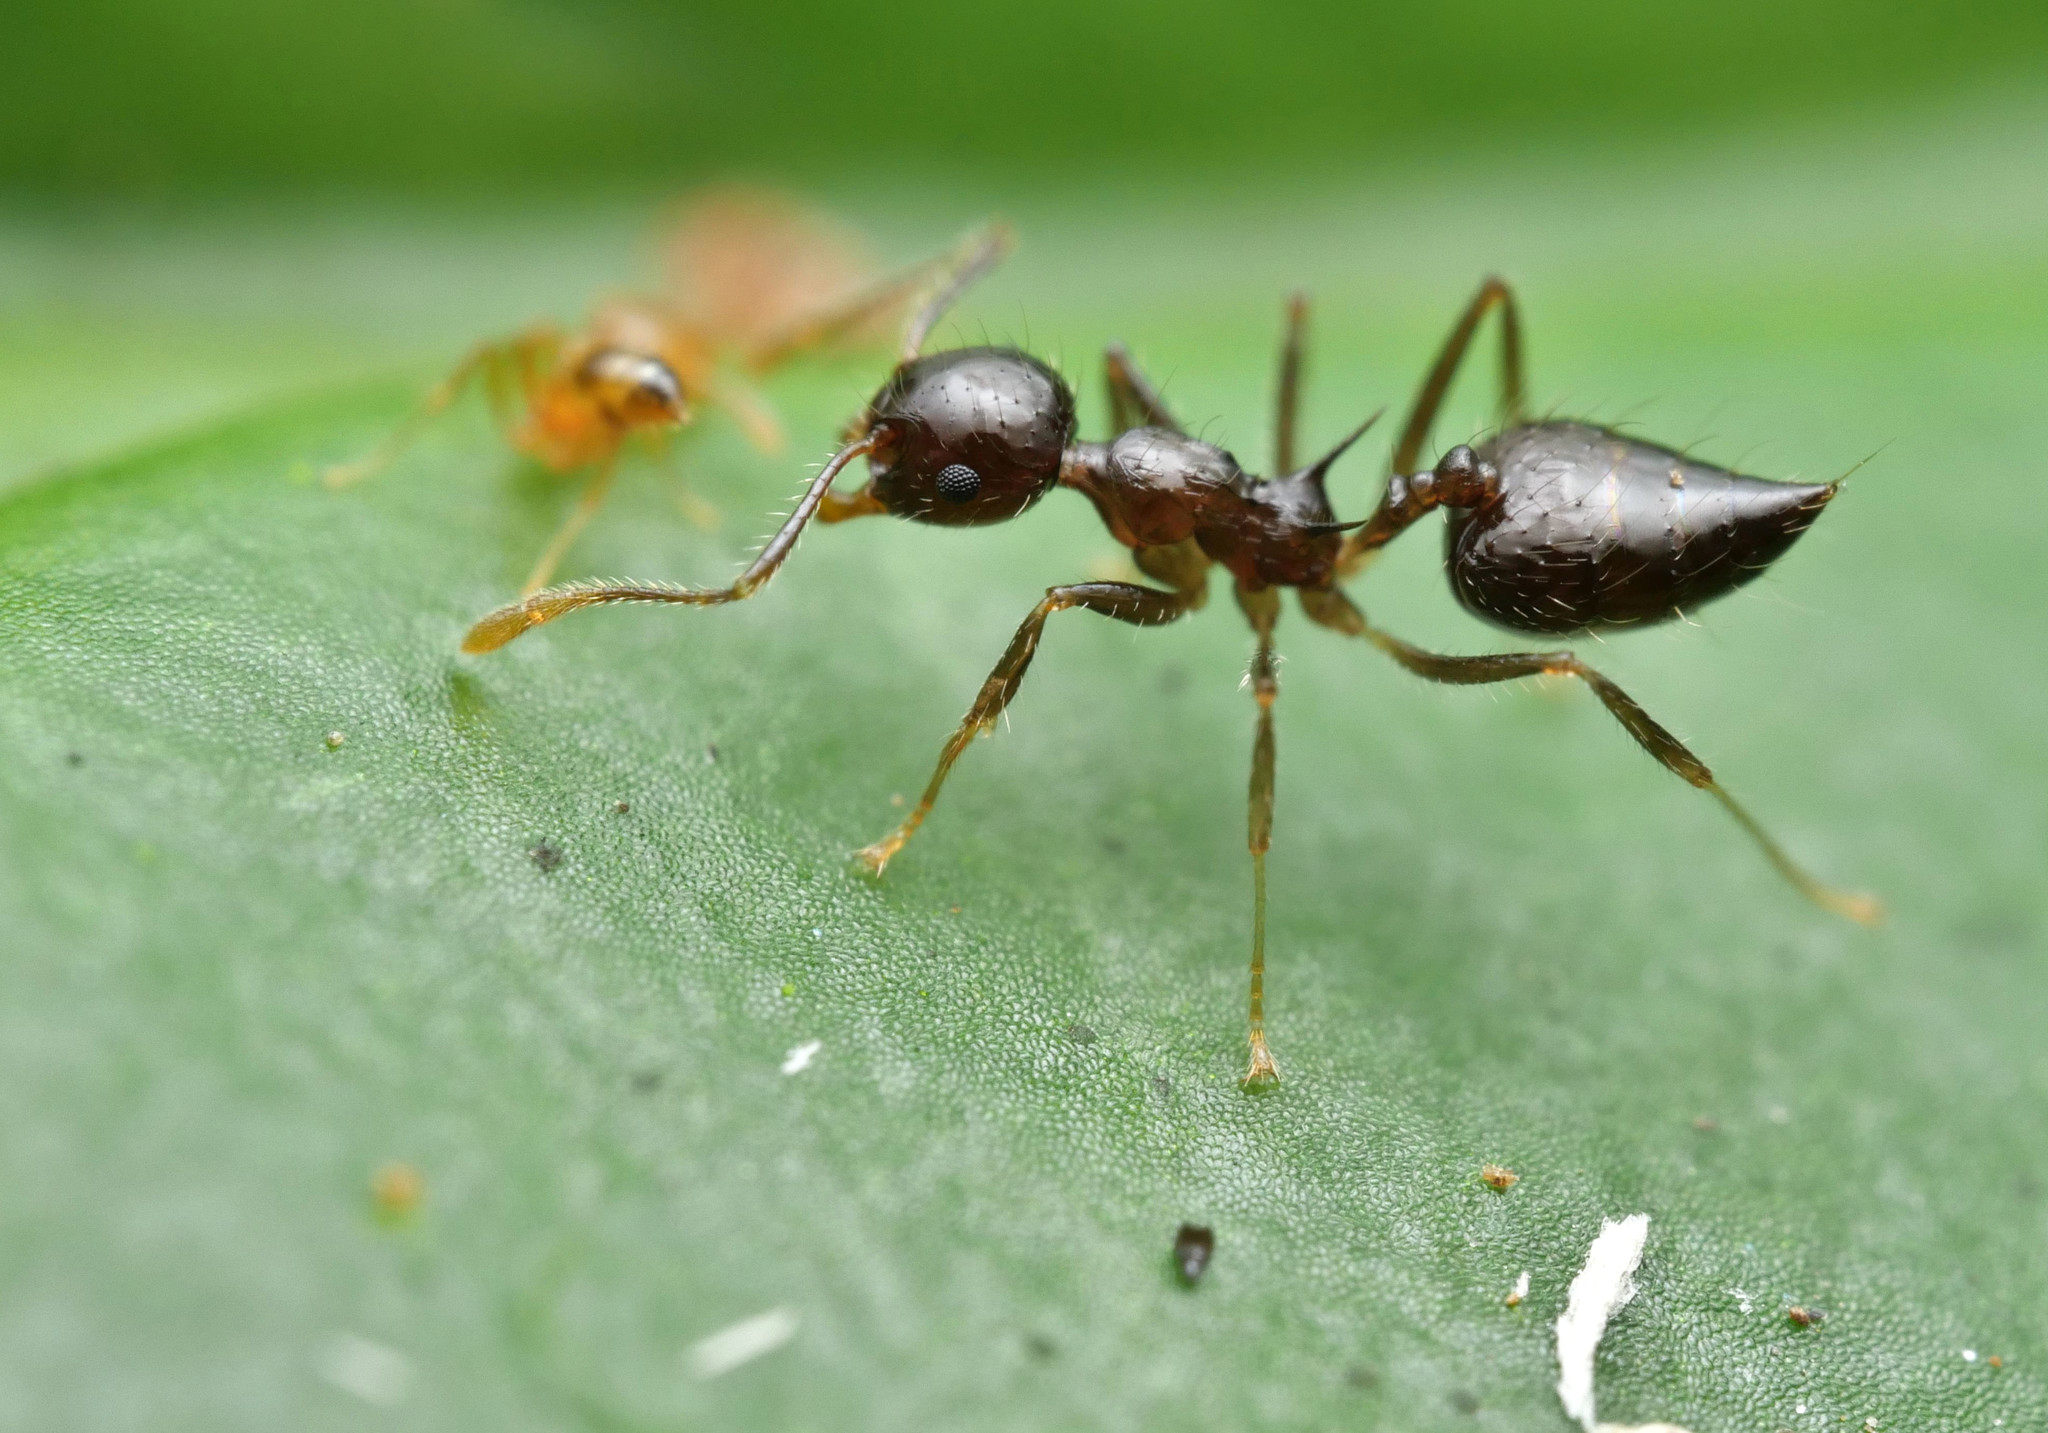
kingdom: Animalia
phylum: Arthropoda
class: Insecta
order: Hymenoptera
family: Formicidae
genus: Crematogaster
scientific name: Crematogaster longispina
